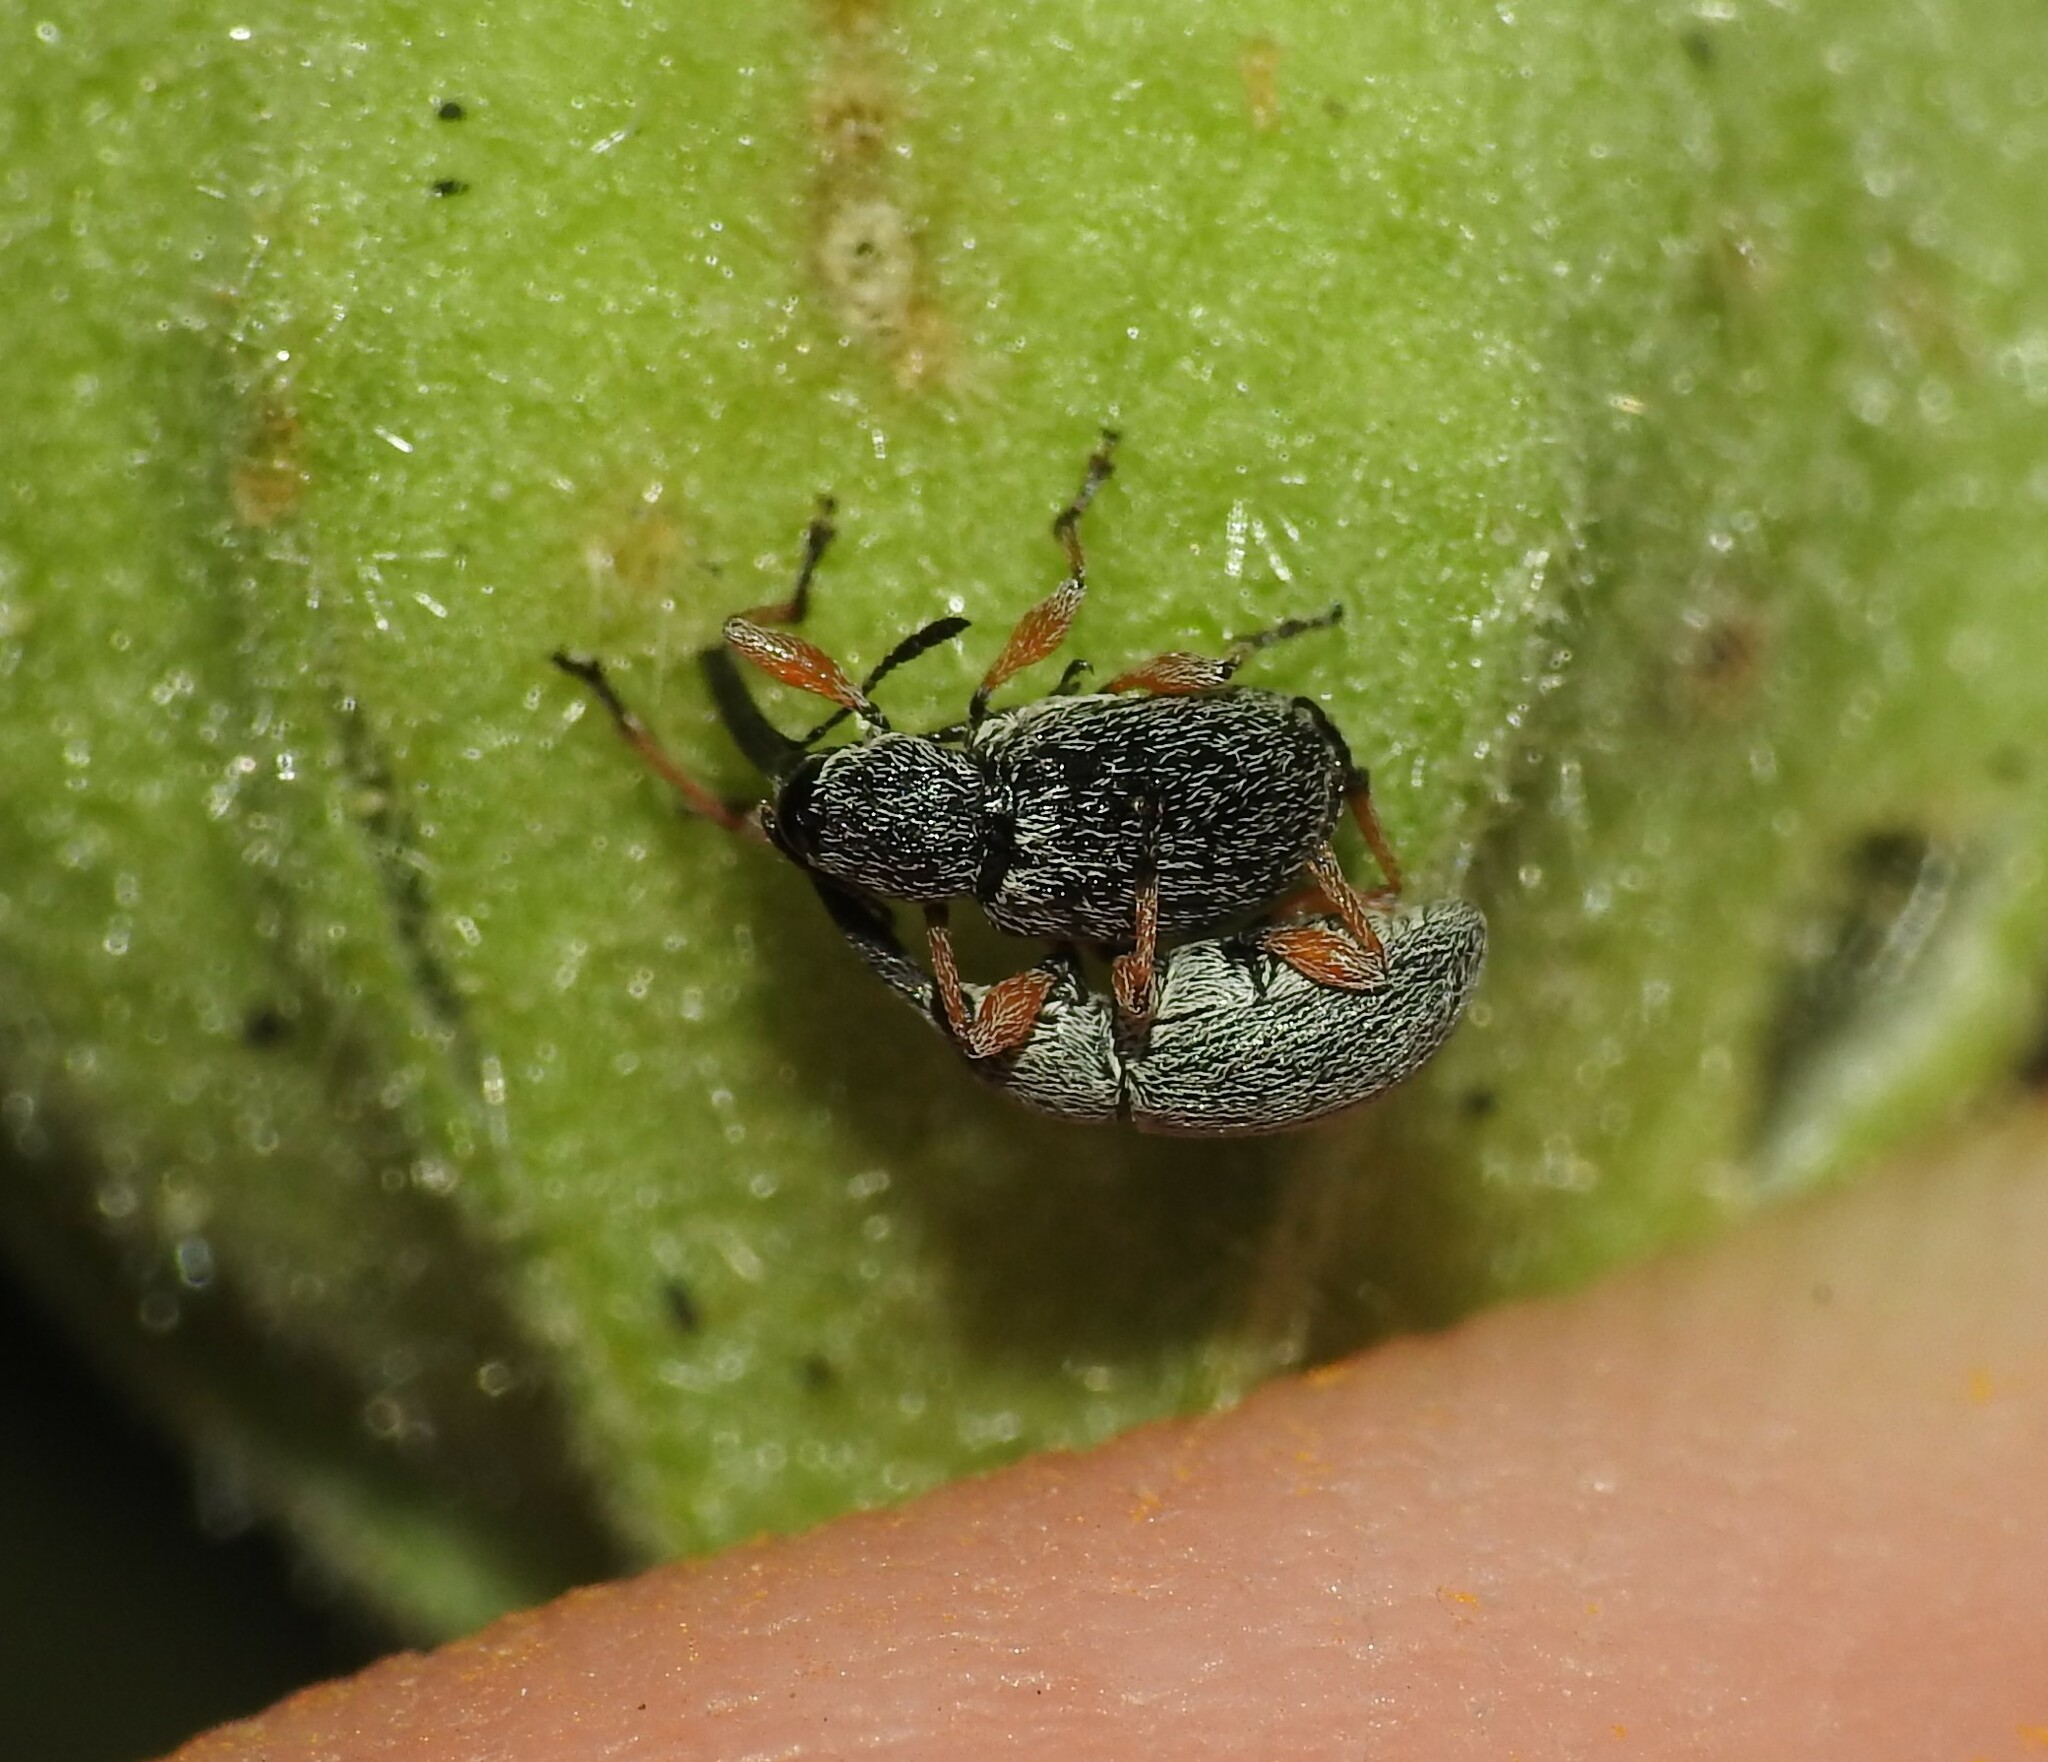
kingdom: Animalia
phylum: Arthropoda
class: Insecta
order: Coleoptera
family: Brentidae
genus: Rhopalapion
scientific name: Rhopalapion longirostre
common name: Hollyhock weevil
